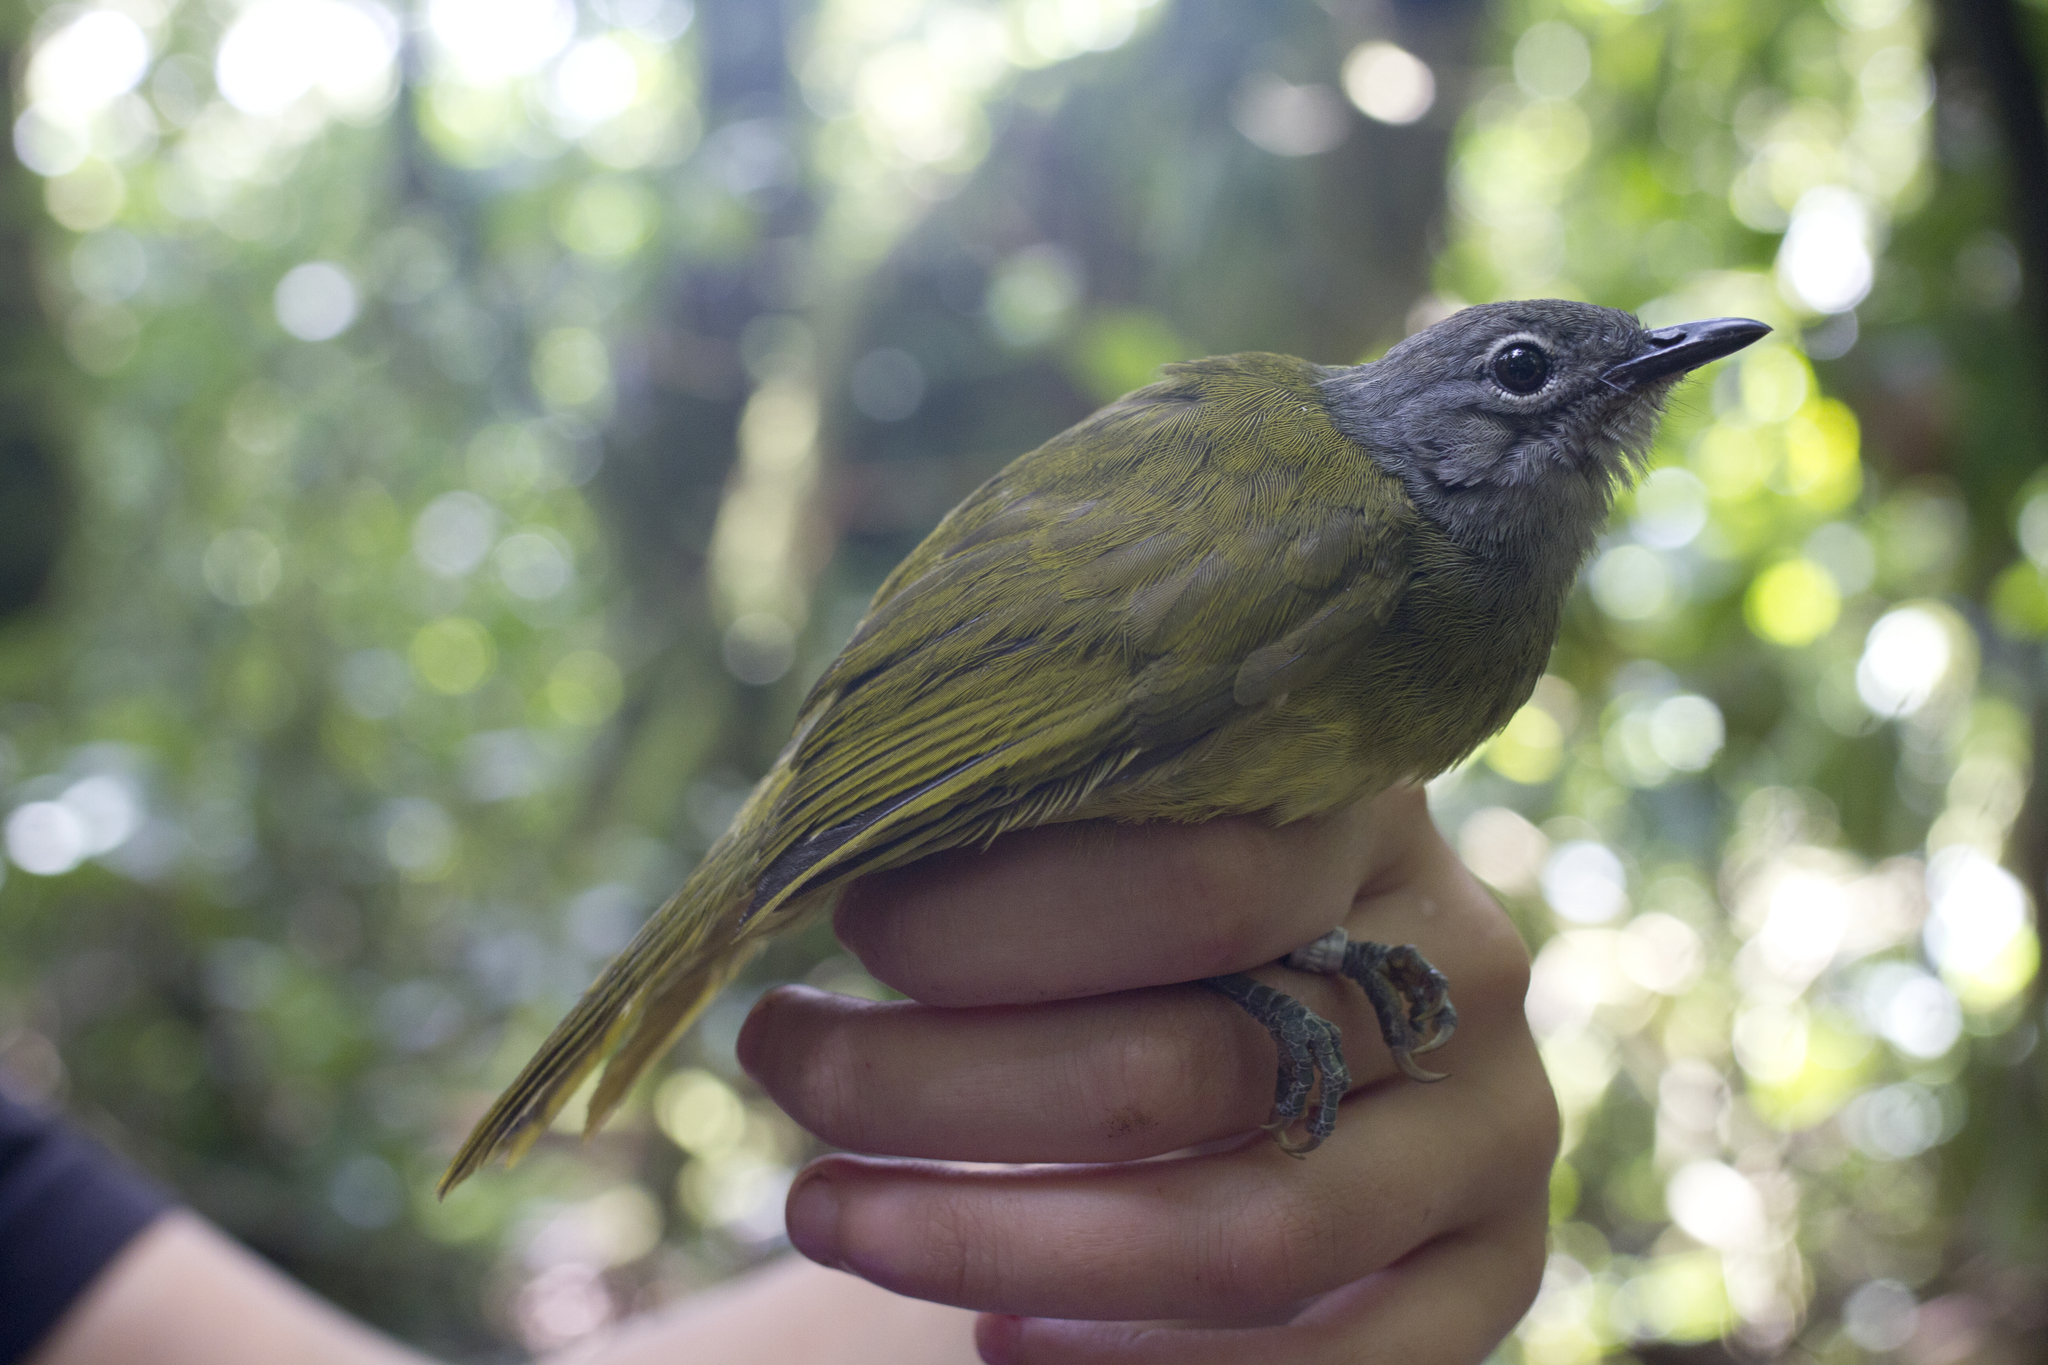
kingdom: Animalia
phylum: Chordata
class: Aves
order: Passeriformes
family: Pycnonotidae
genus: Arizelocichla
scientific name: Arizelocichla tephrolaema
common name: Western greenbul
